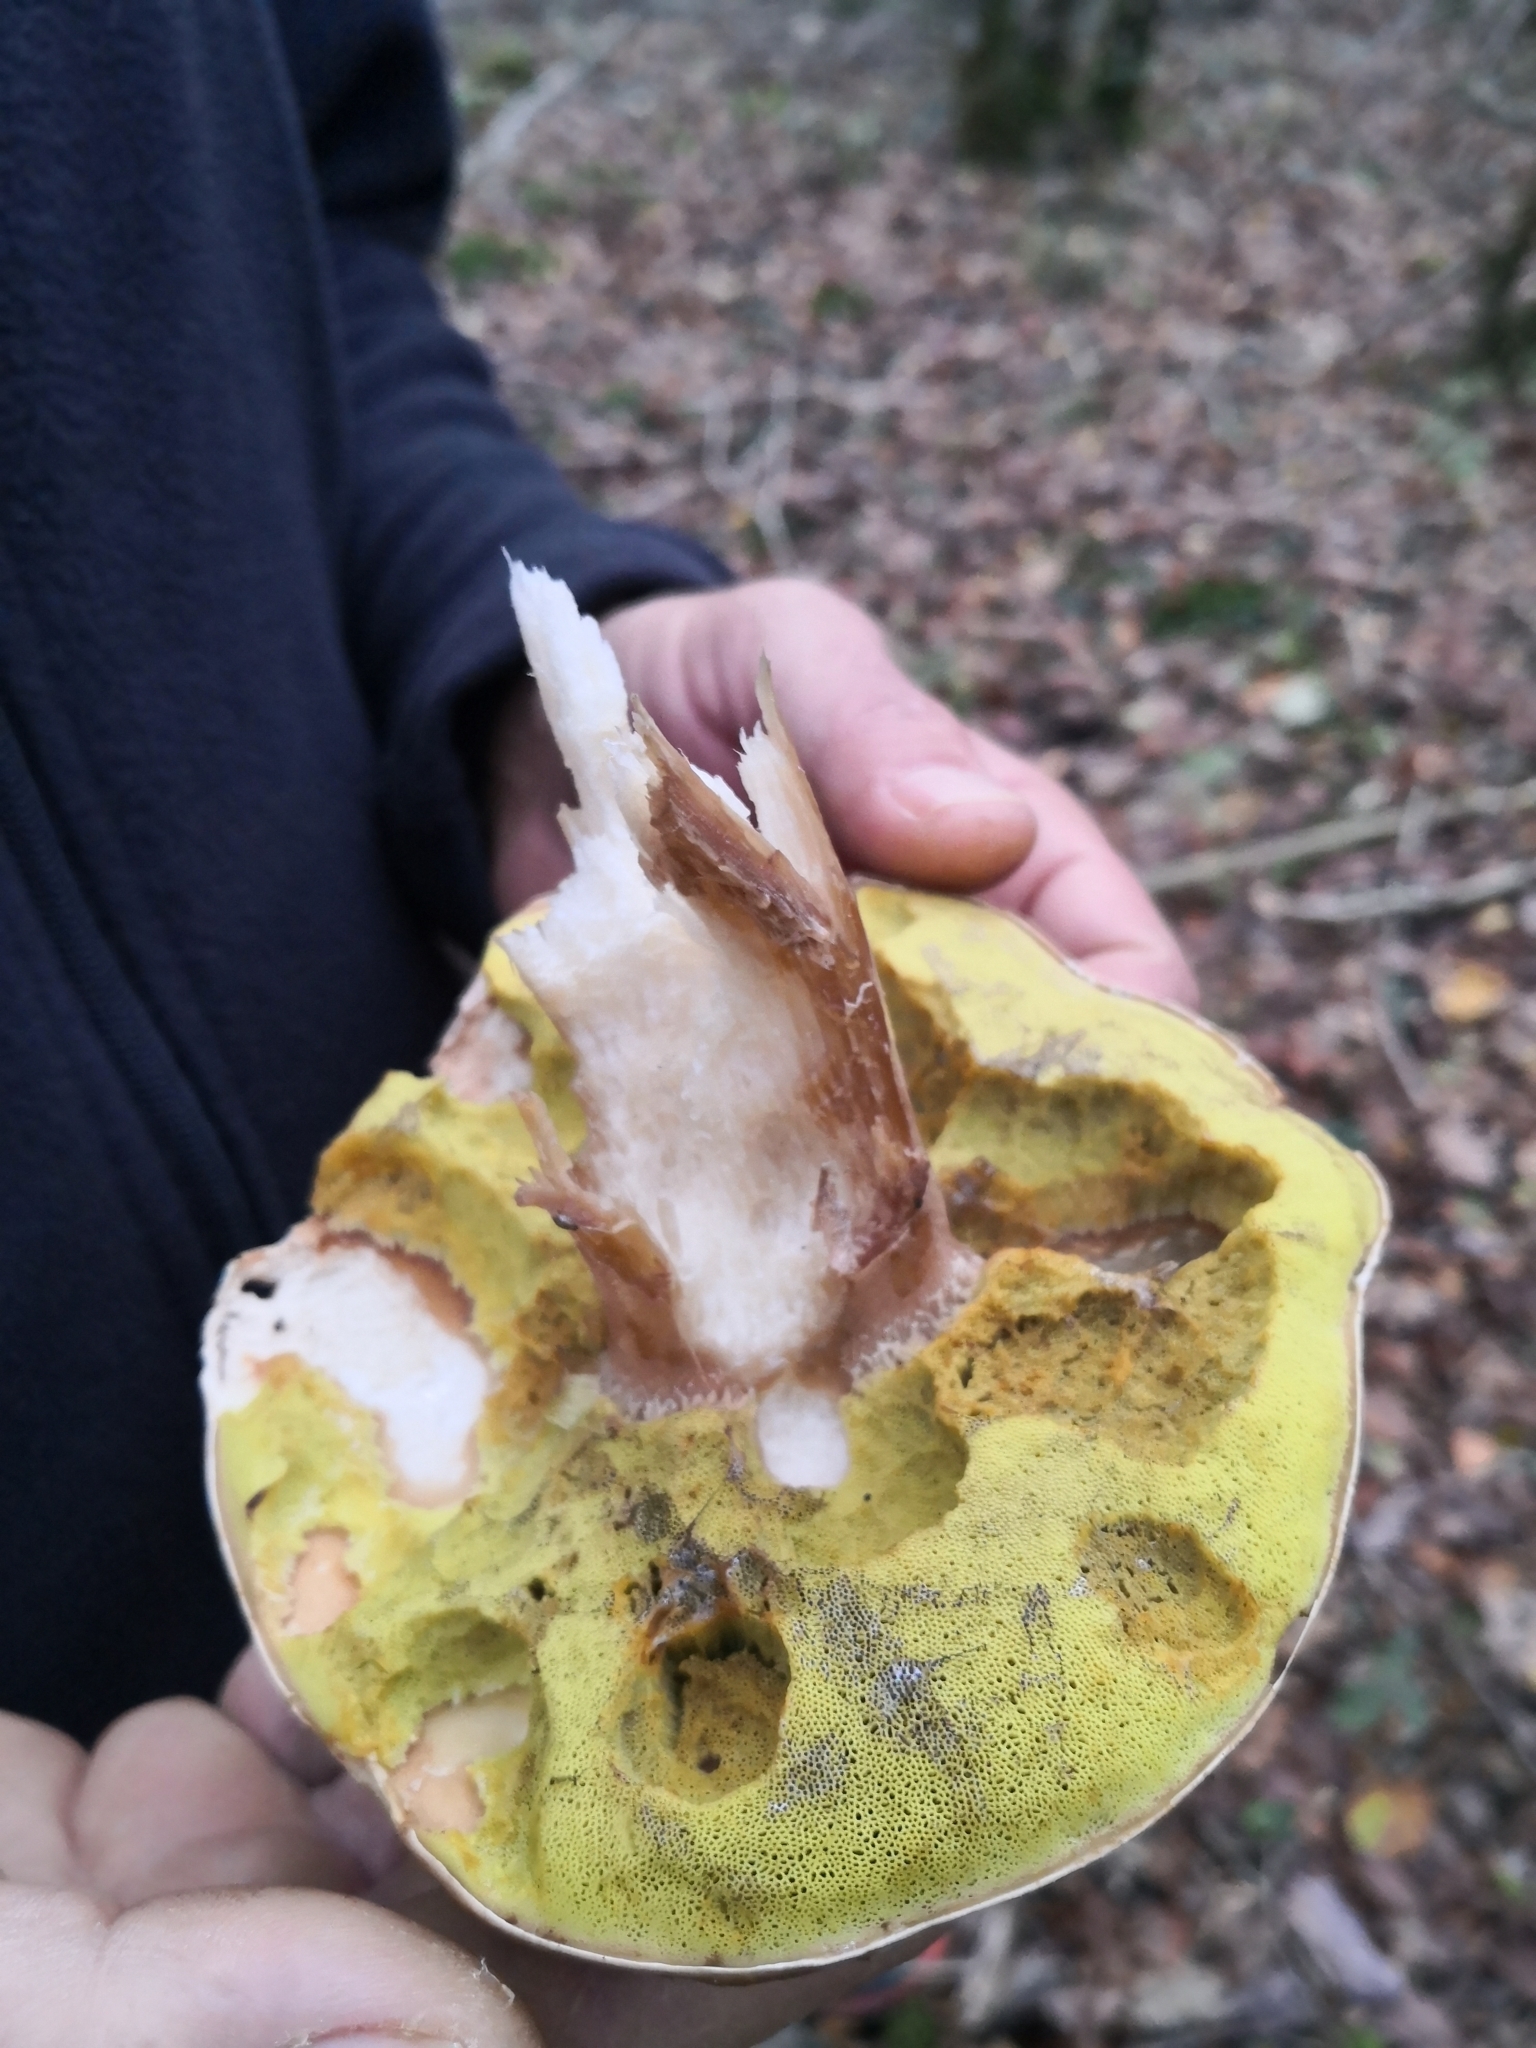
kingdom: Fungi
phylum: Basidiomycota
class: Agaricomycetes
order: Boletales
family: Boletaceae
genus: Boletus
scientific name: Boletus edulis
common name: Cep
